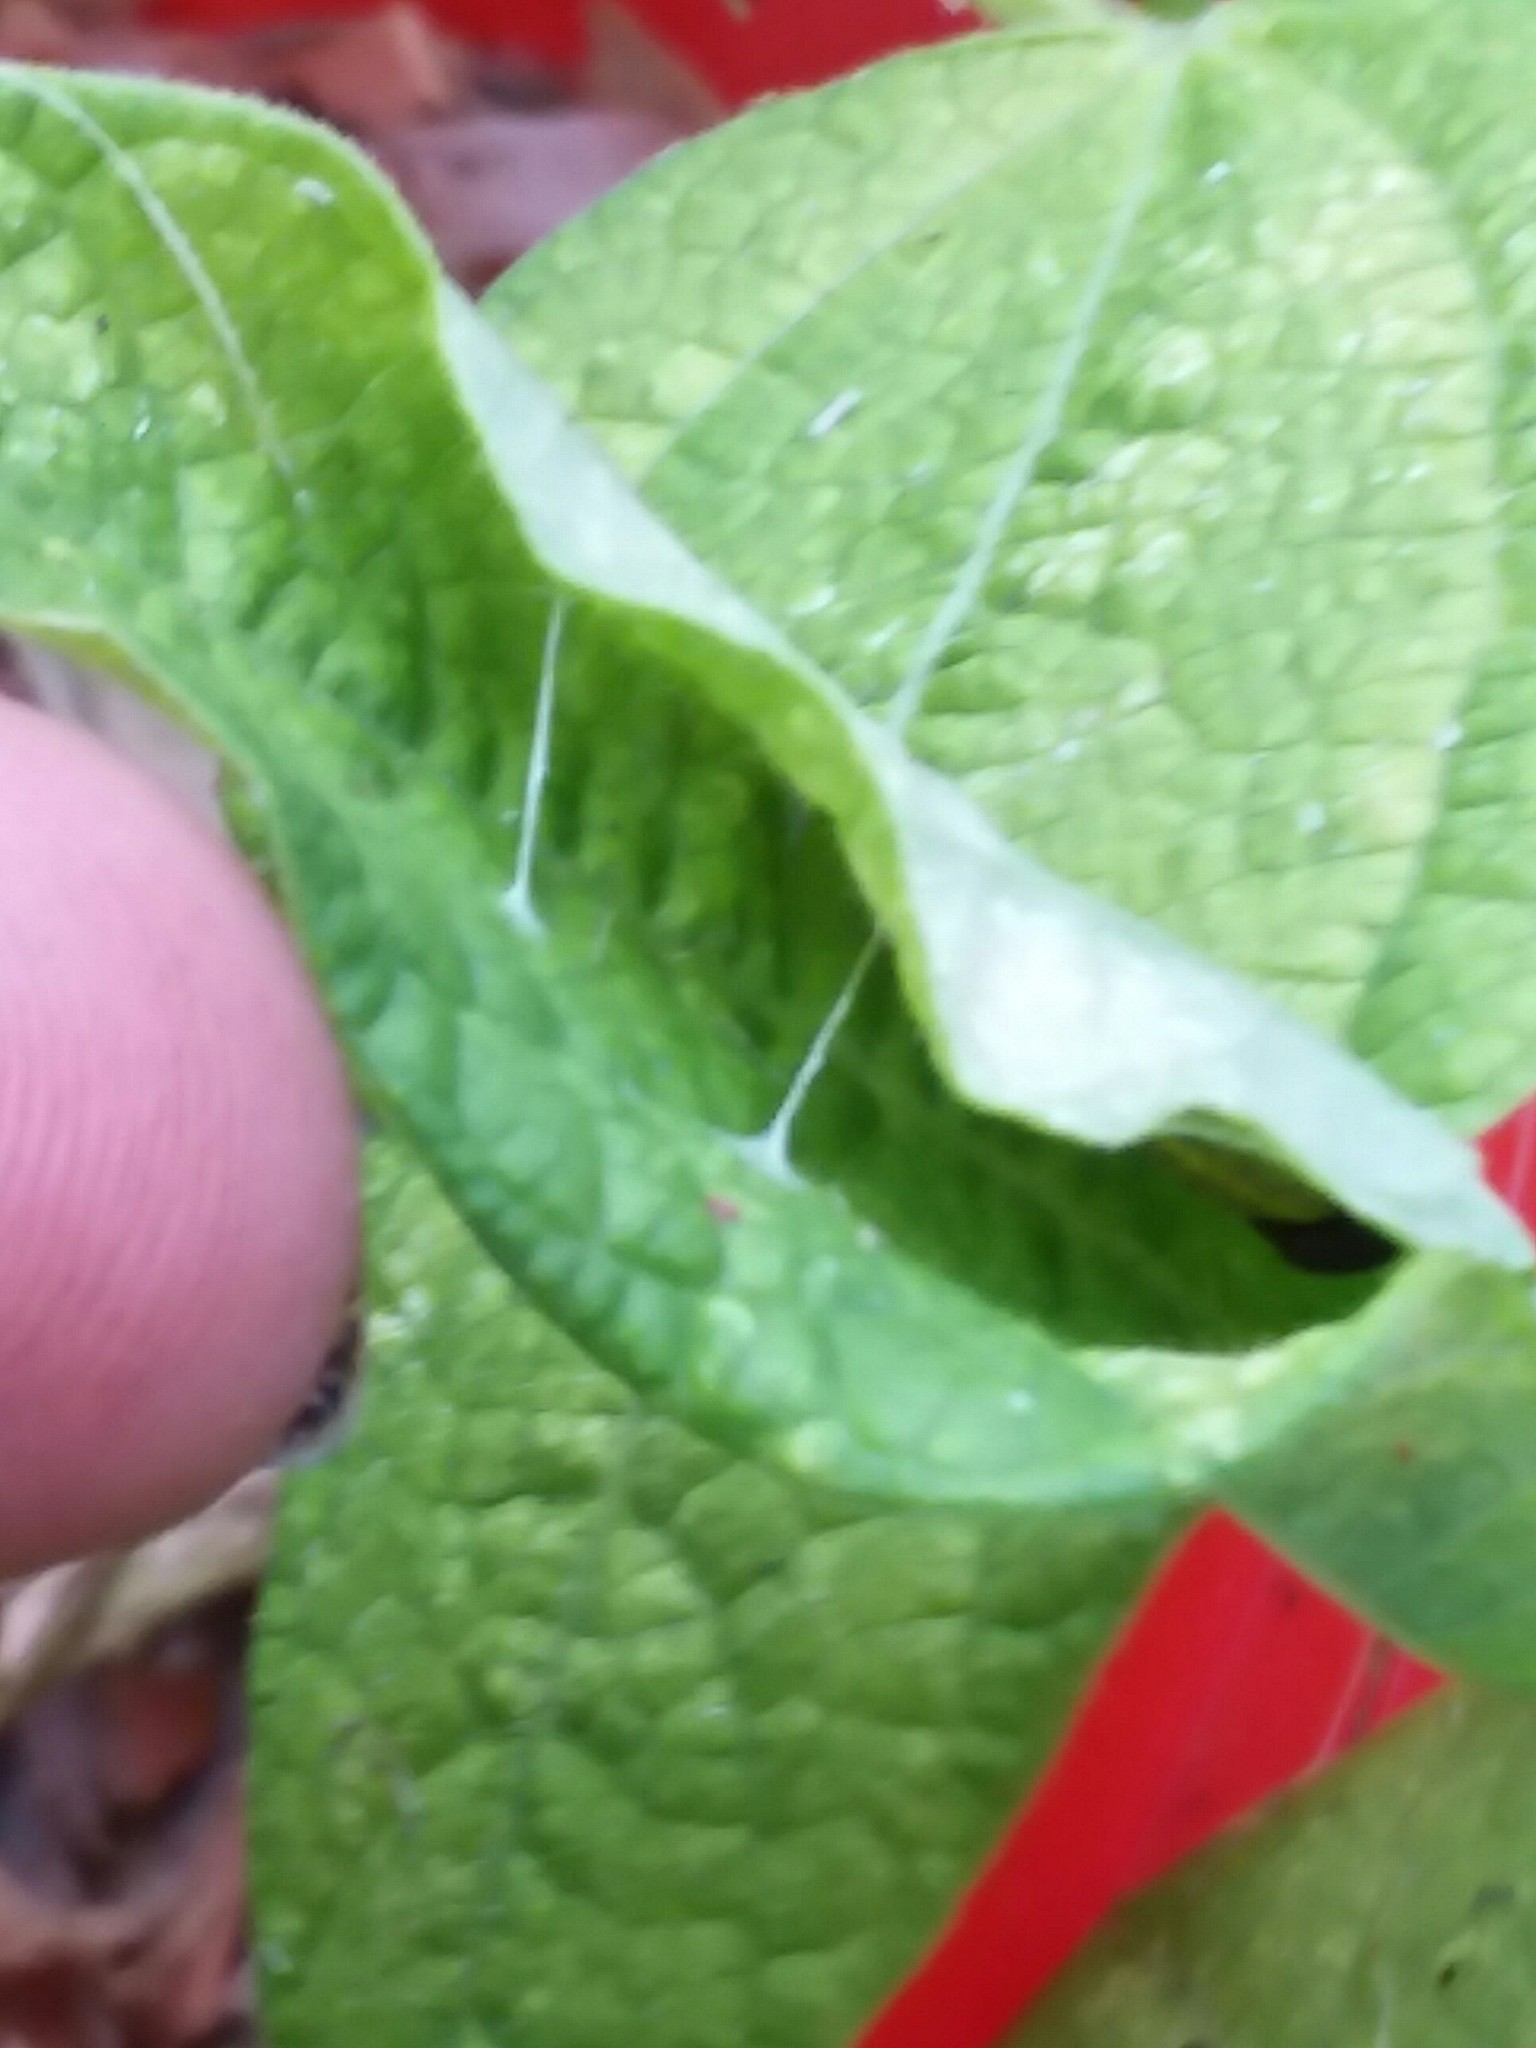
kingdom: Animalia
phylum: Arthropoda
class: Insecta
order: Lepidoptera
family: Hesperiidae
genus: Urbanus
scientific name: Urbanus proteus
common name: Long-tailed skipper
